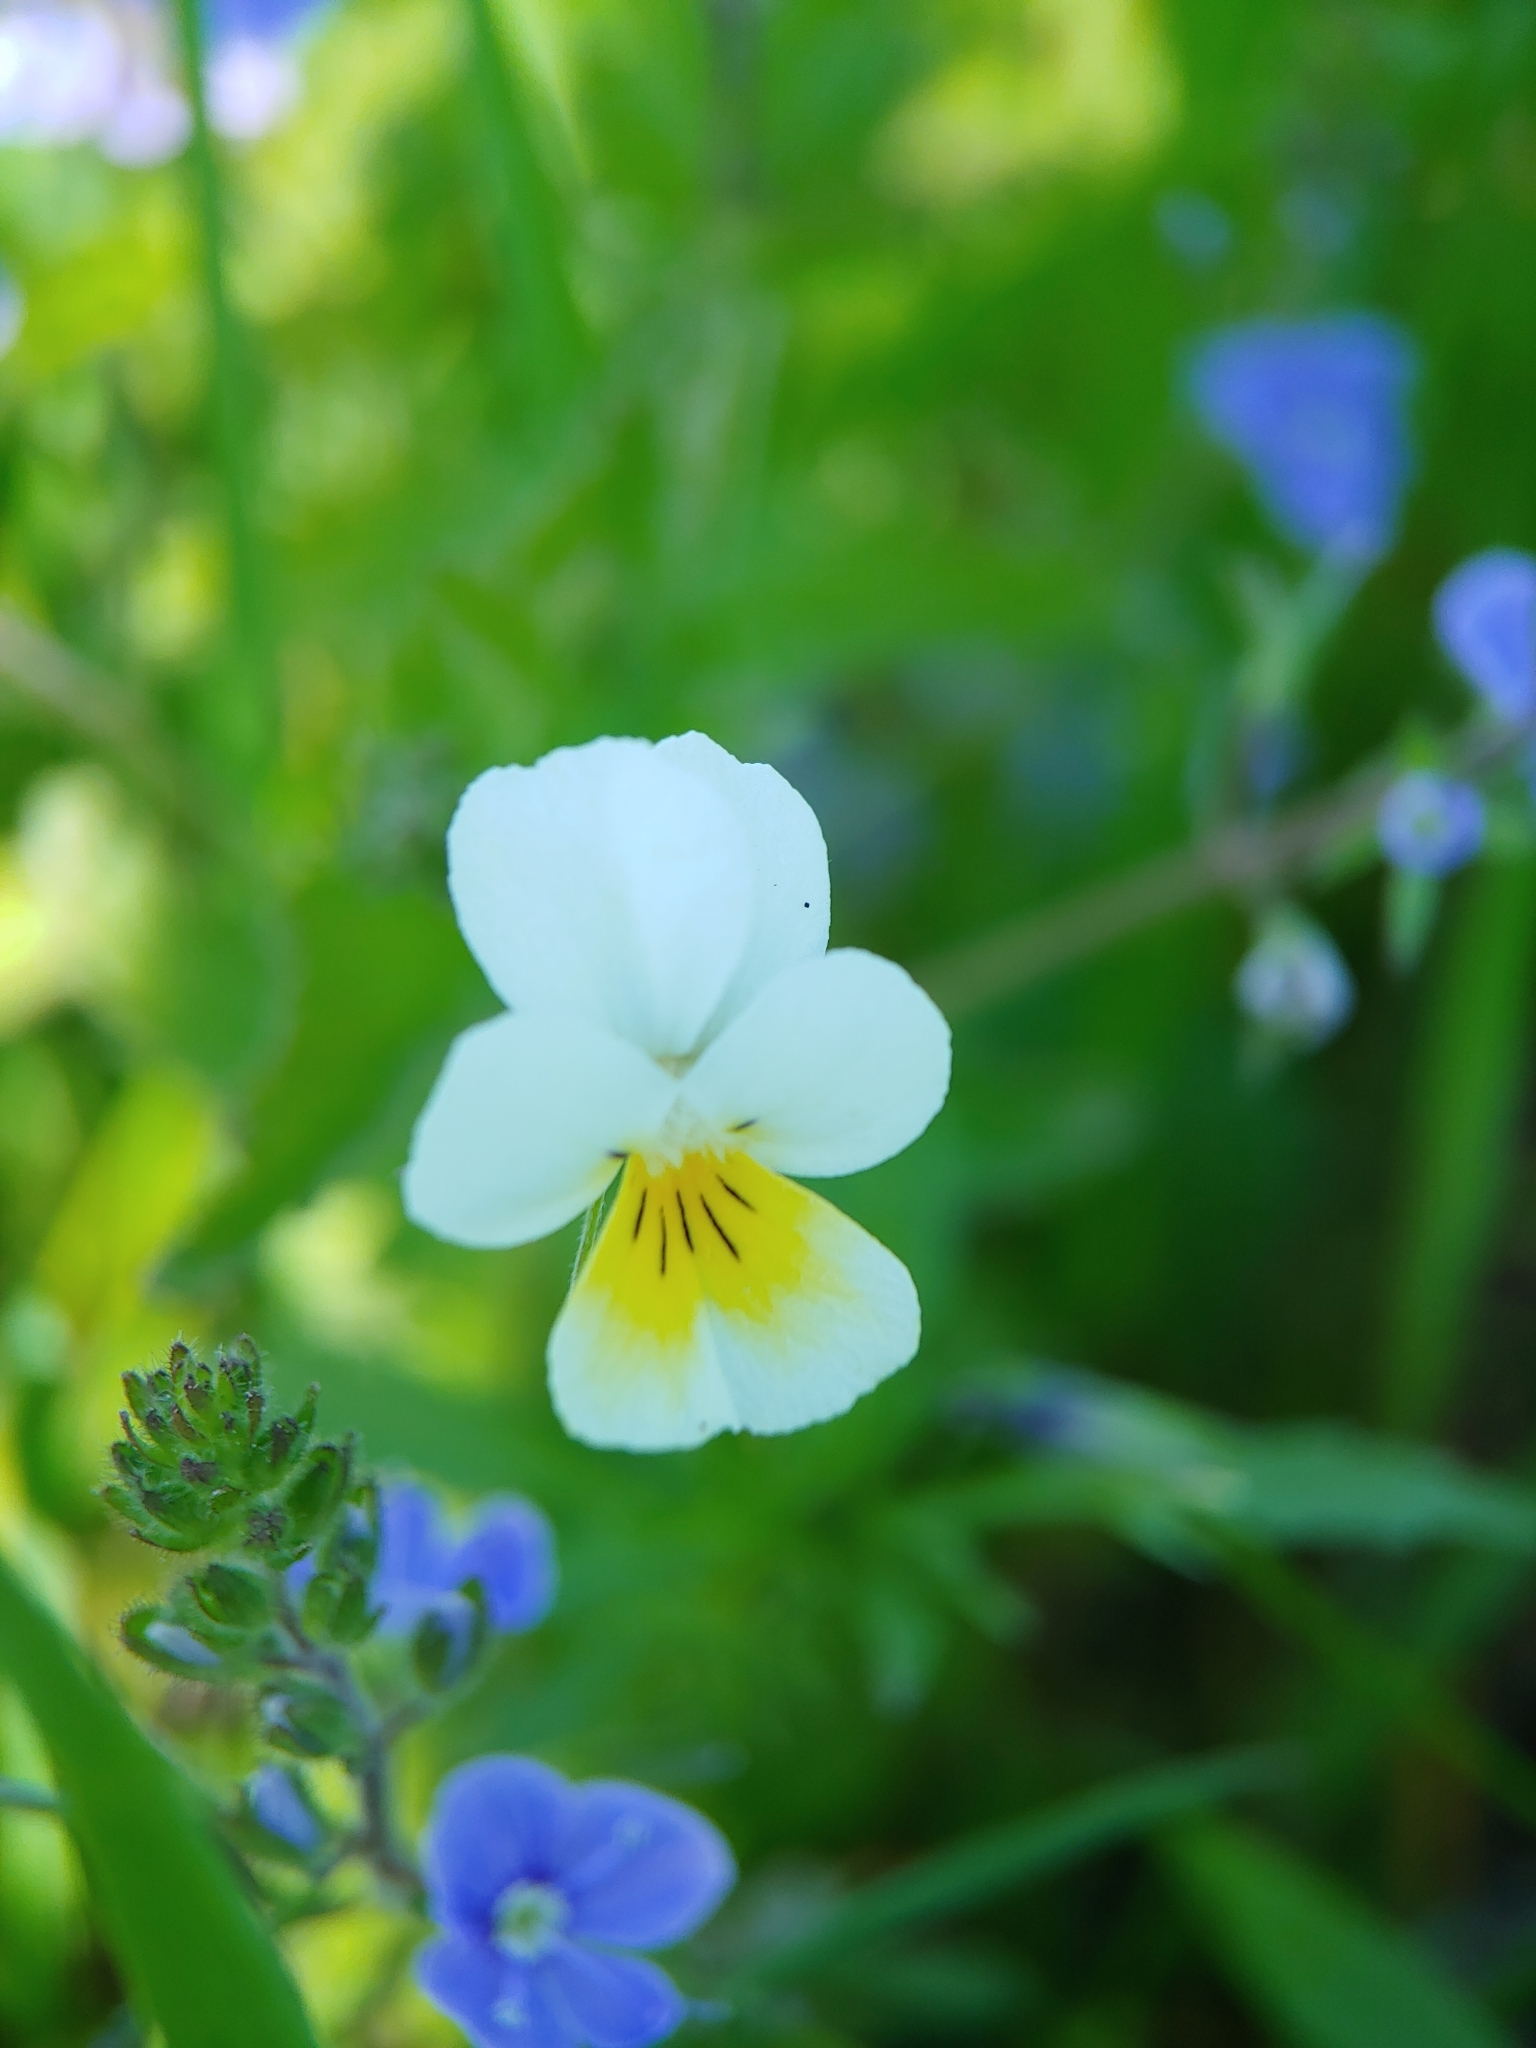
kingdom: Plantae
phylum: Tracheophyta
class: Magnoliopsida
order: Malpighiales
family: Violaceae
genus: Viola
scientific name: Viola arvensis
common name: Field pansy
